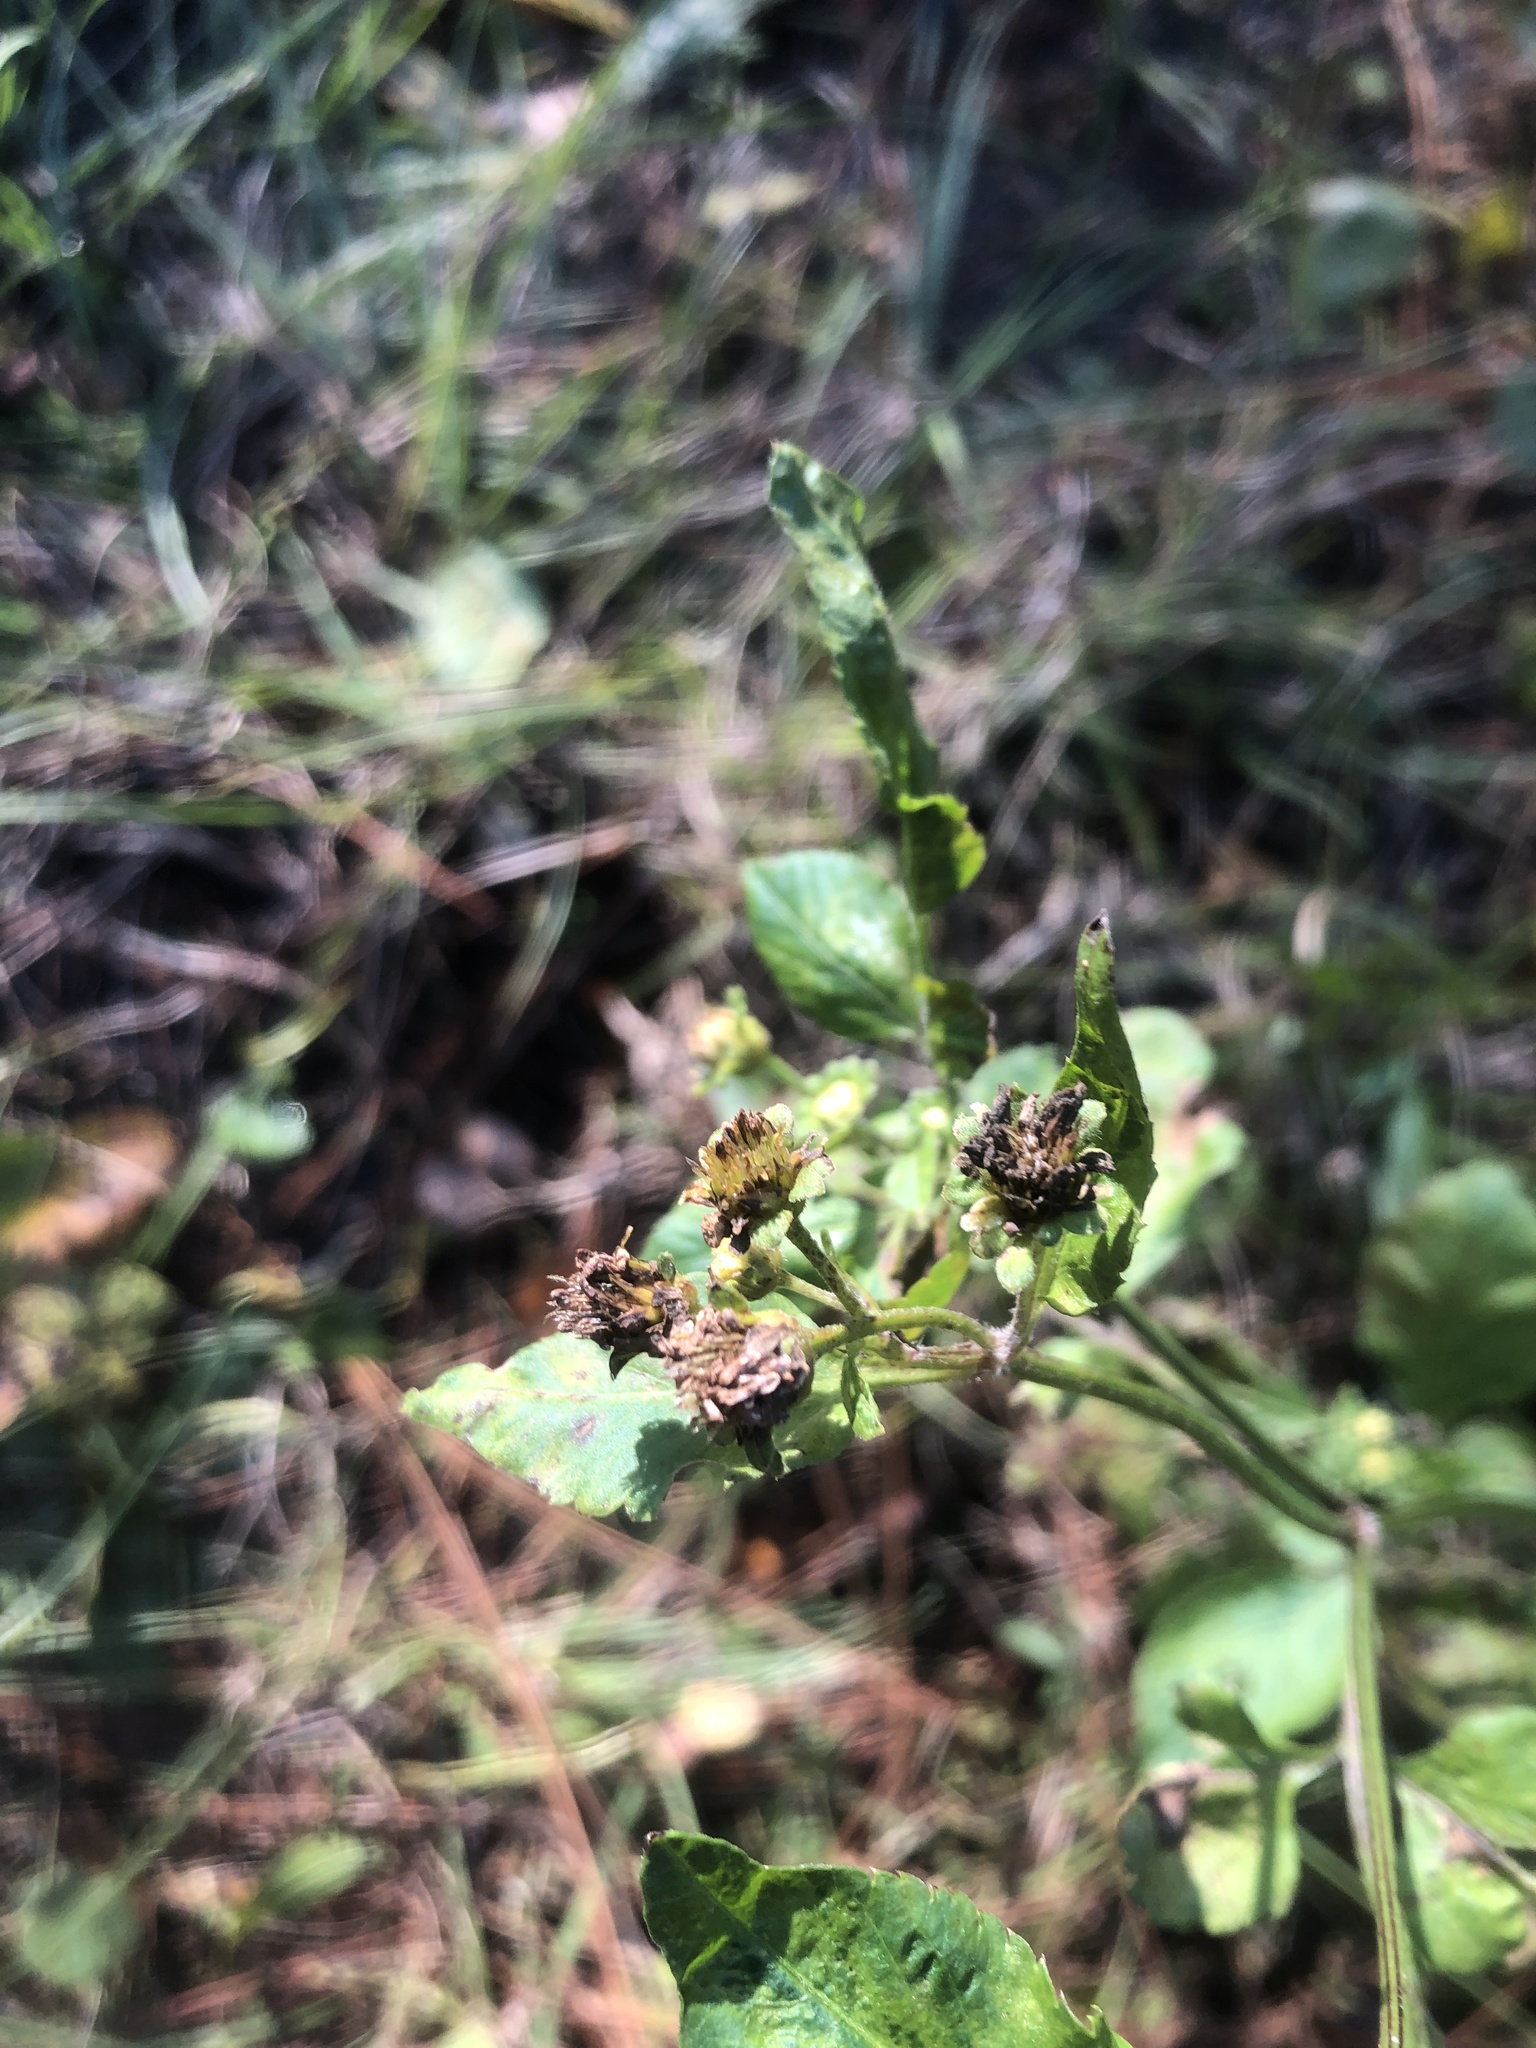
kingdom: Plantae
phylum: Tracheophyta
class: Magnoliopsida
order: Asterales
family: Asteraceae
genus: Bidens
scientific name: Bidens alba
